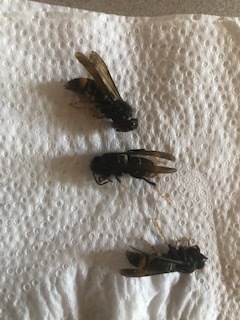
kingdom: Animalia
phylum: Arthropoda
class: Insecta
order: Hymenoptera
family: Vespidae
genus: Vespa
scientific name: Vespa velutina
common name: Asian hornet
